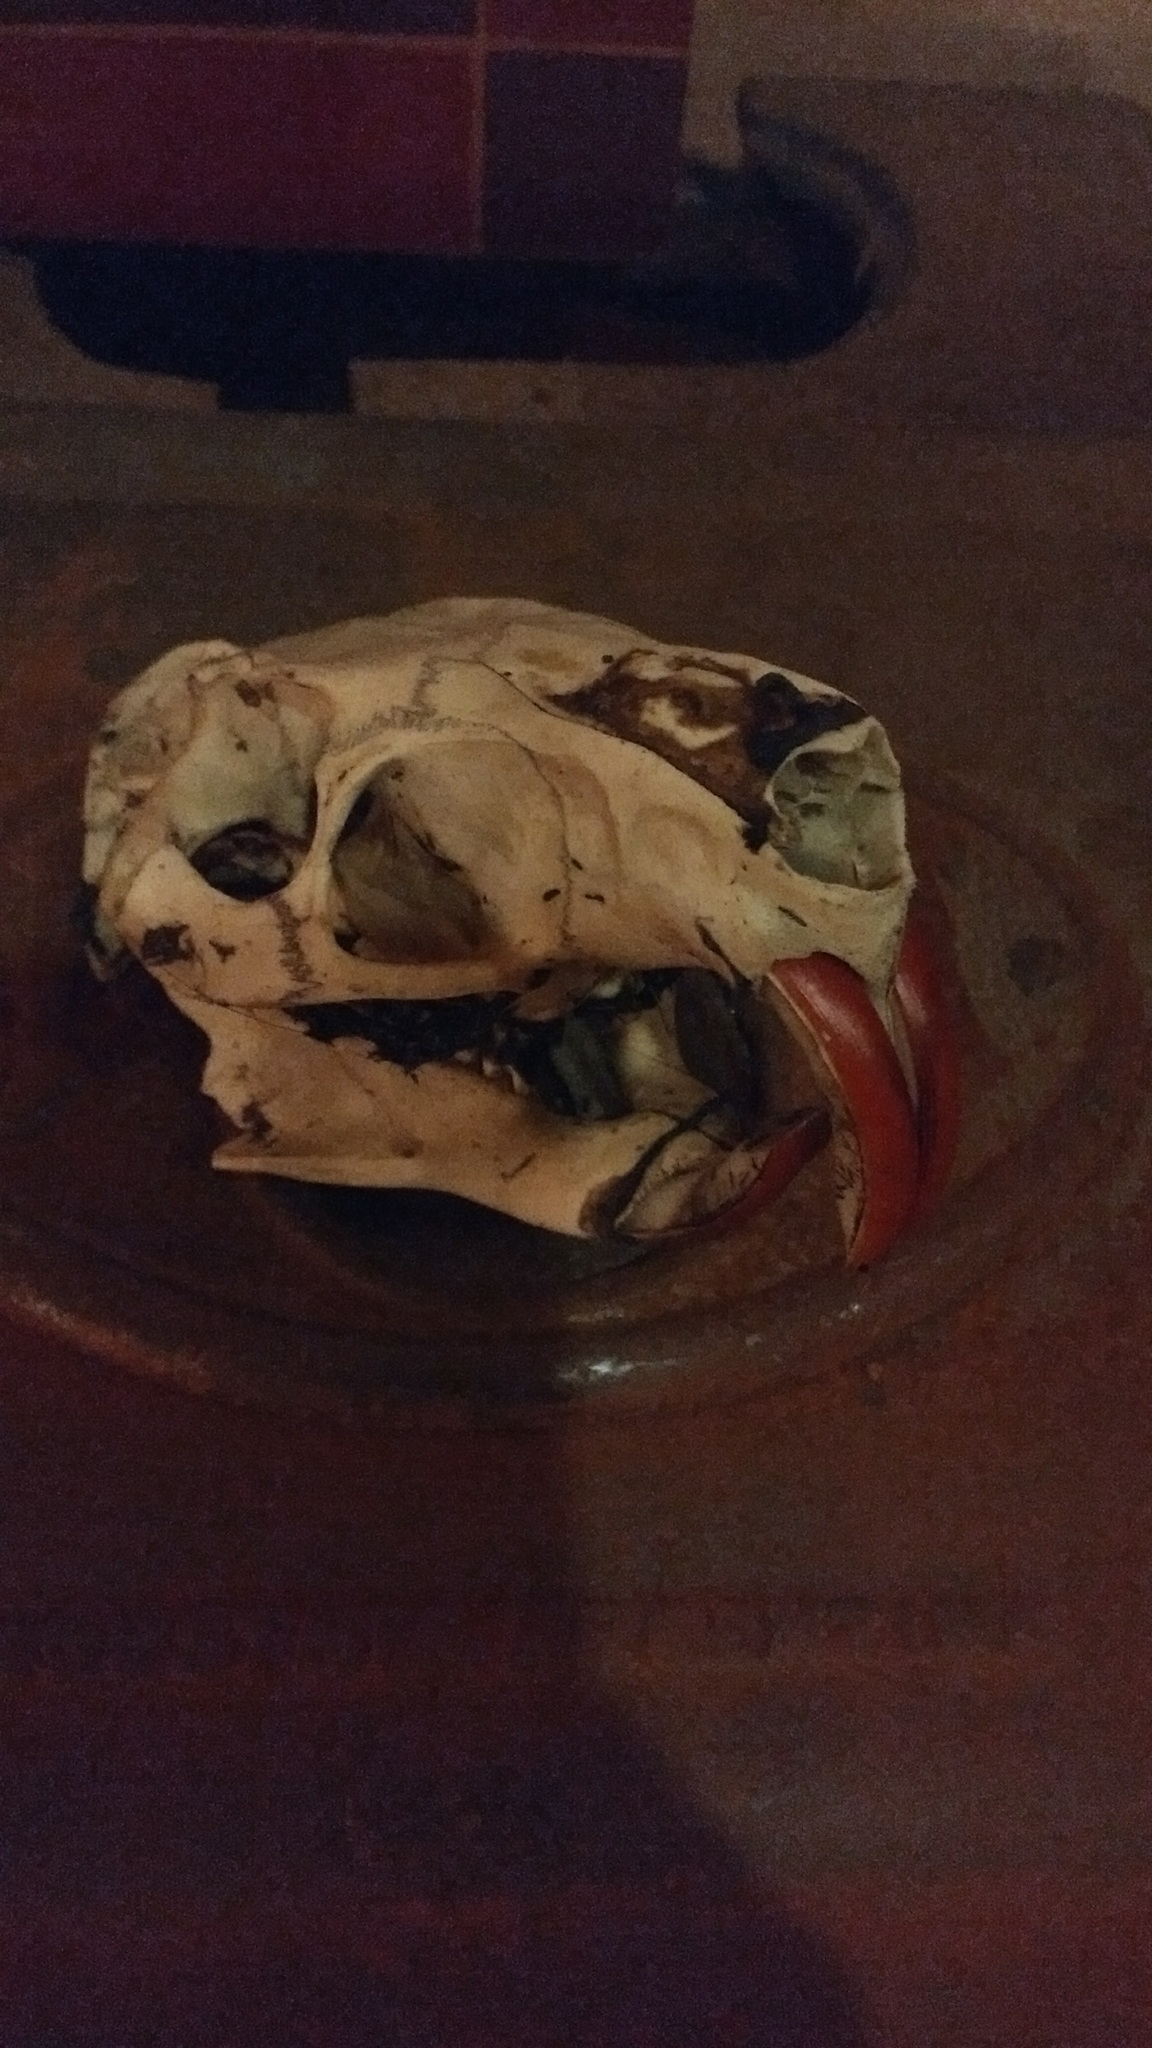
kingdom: Animalia
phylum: Chordata
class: Mammalia
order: Rodentia
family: Myocastoridae
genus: Myocastor
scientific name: Myocastor coypus
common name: Coypu
